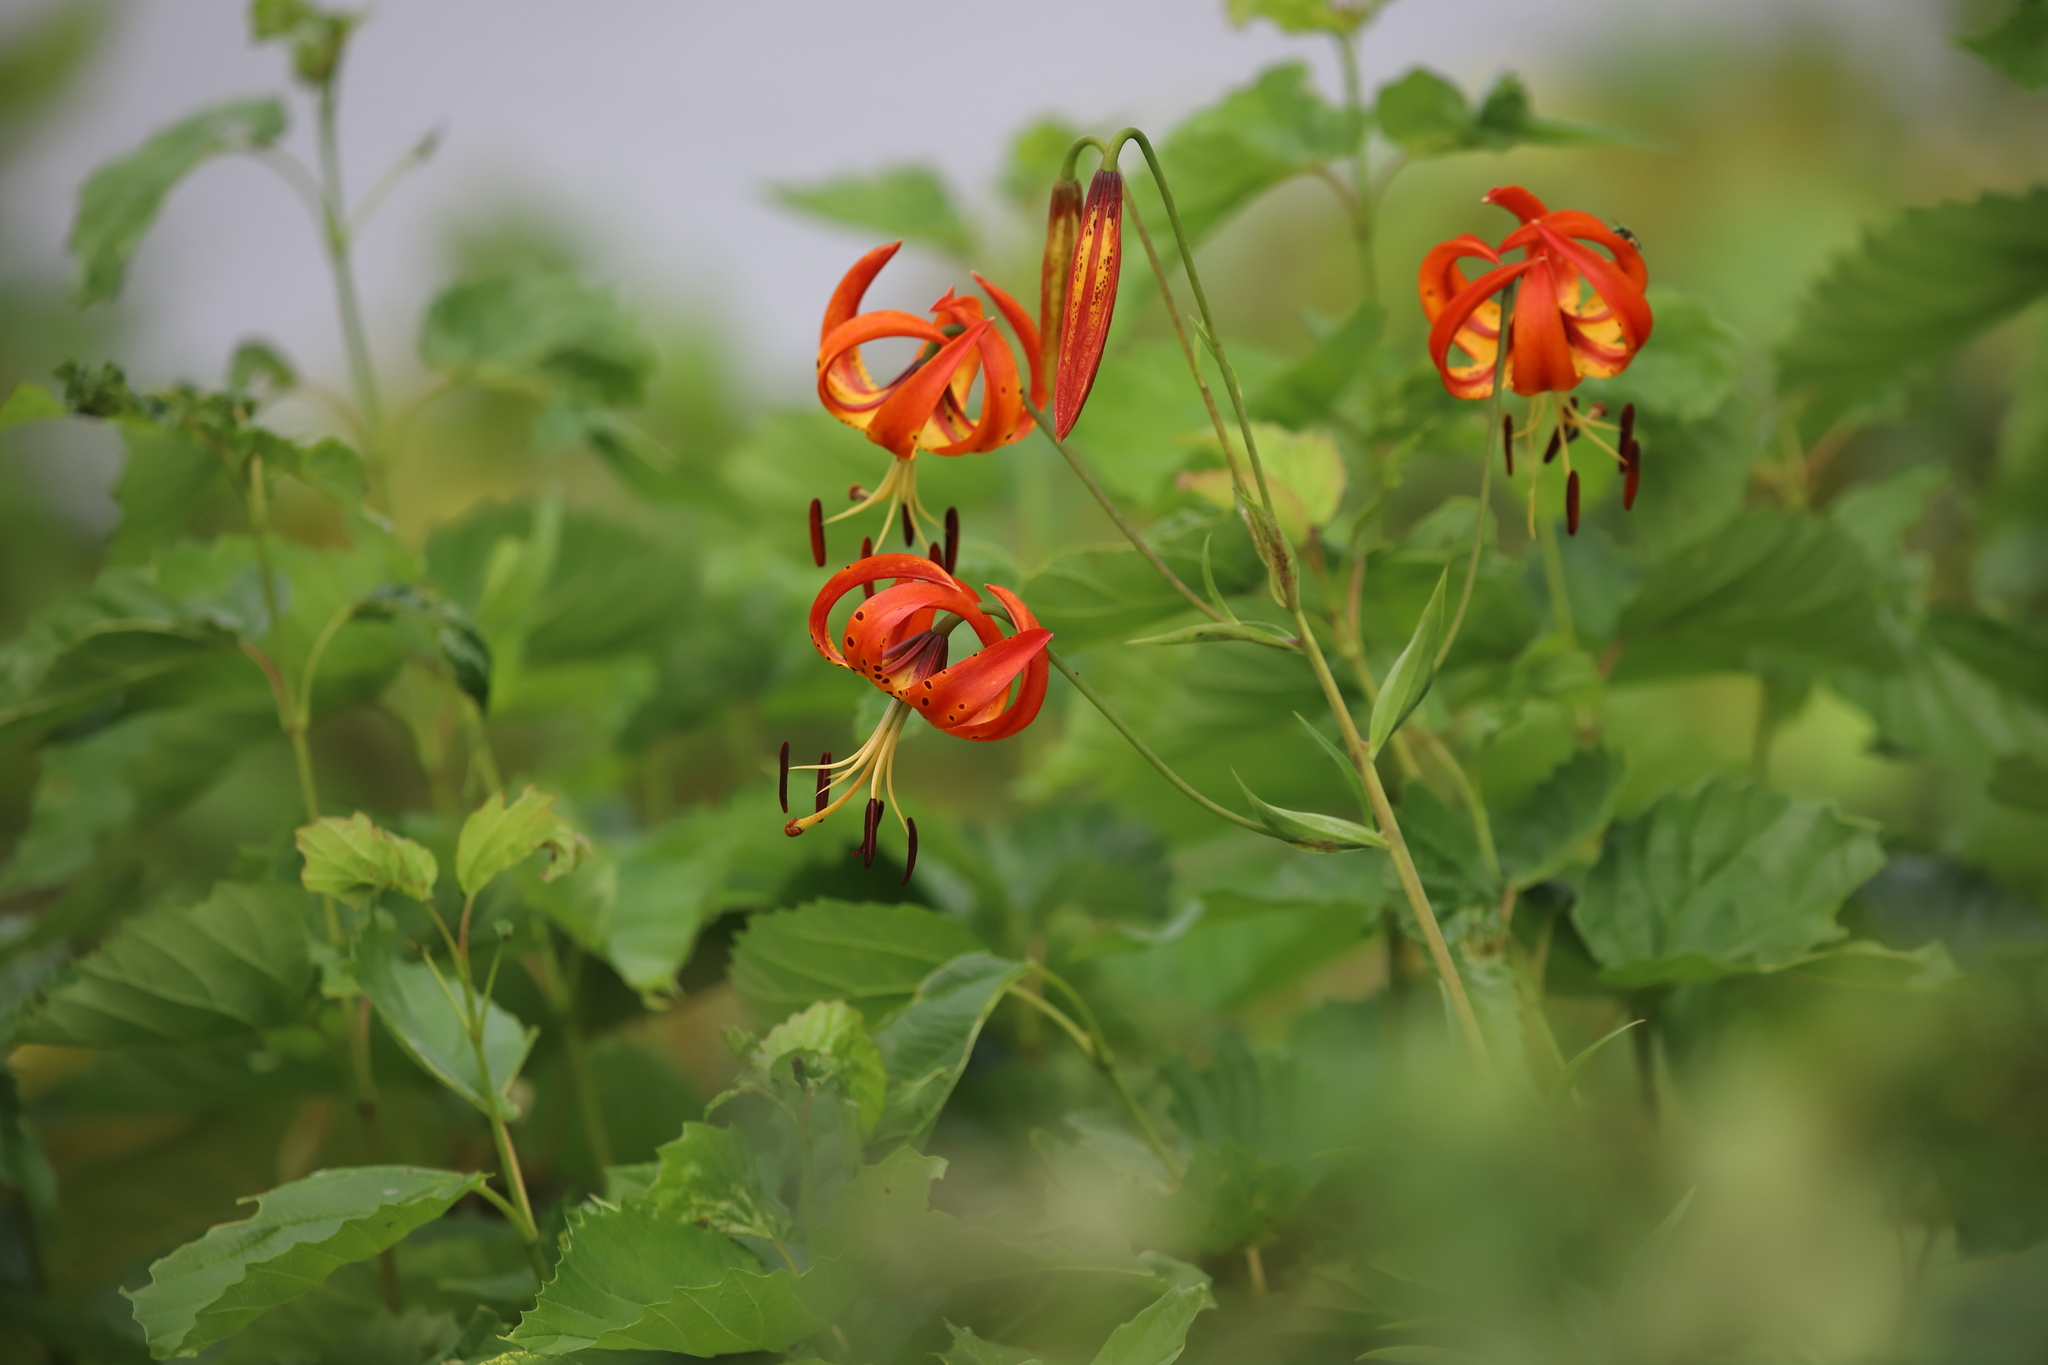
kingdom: Plantae
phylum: Tracheophyta
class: Liliopsida
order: Liliales
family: Liliaceae
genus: Lilium
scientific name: Lilium lancifolium
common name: Tiger lily
